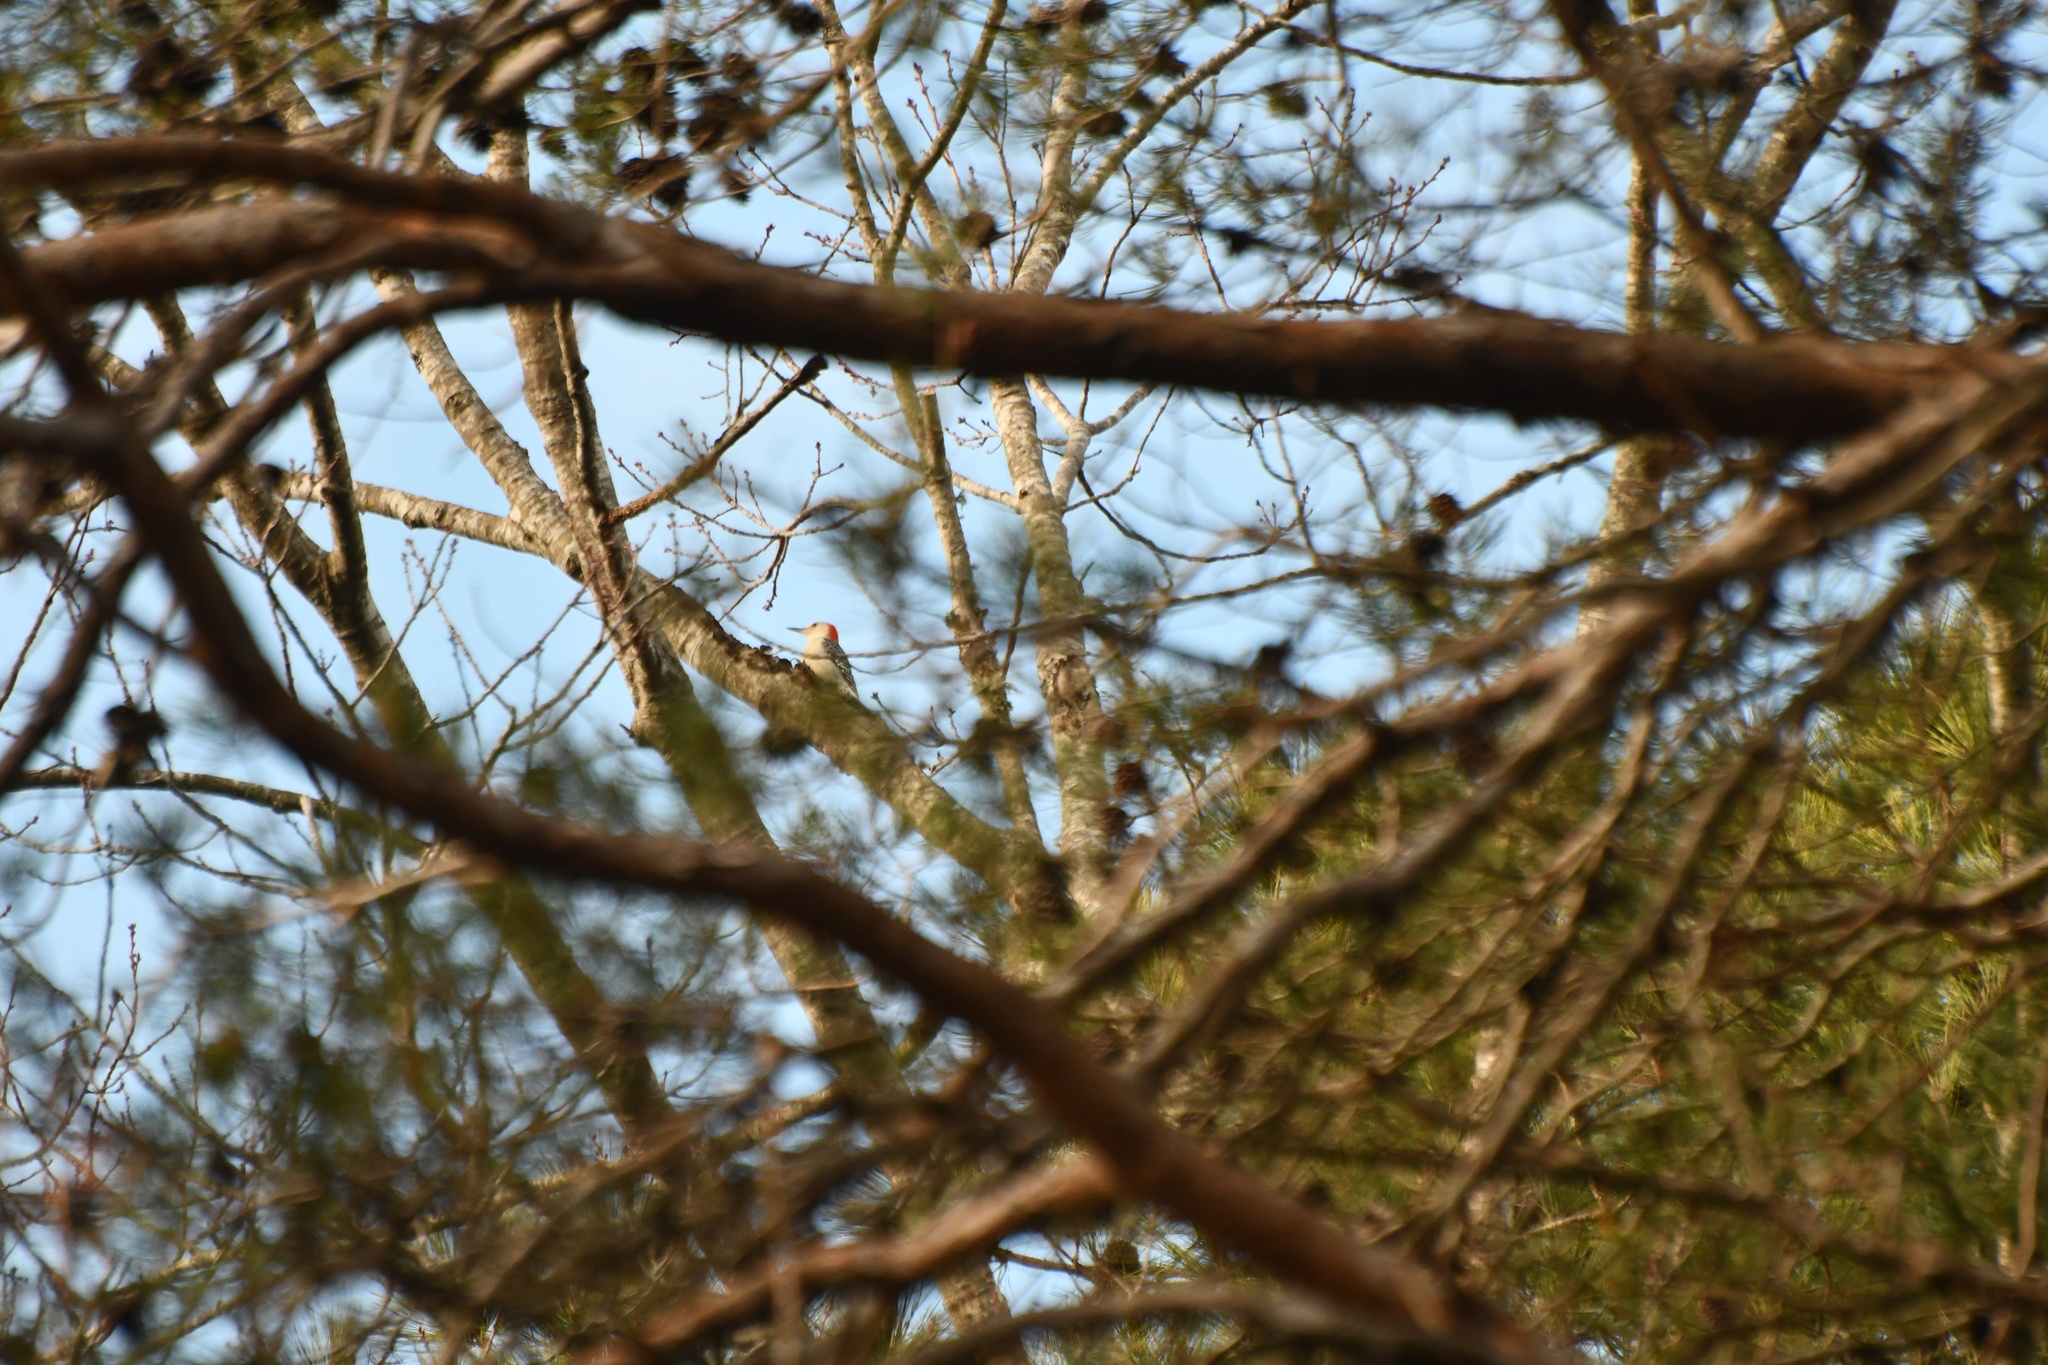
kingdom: Animalia
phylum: Chordata
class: Aves
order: Piciformes
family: Picidae
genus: Melanerpes
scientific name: Melanerpes carolinus
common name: Red-bellied woodpecker
